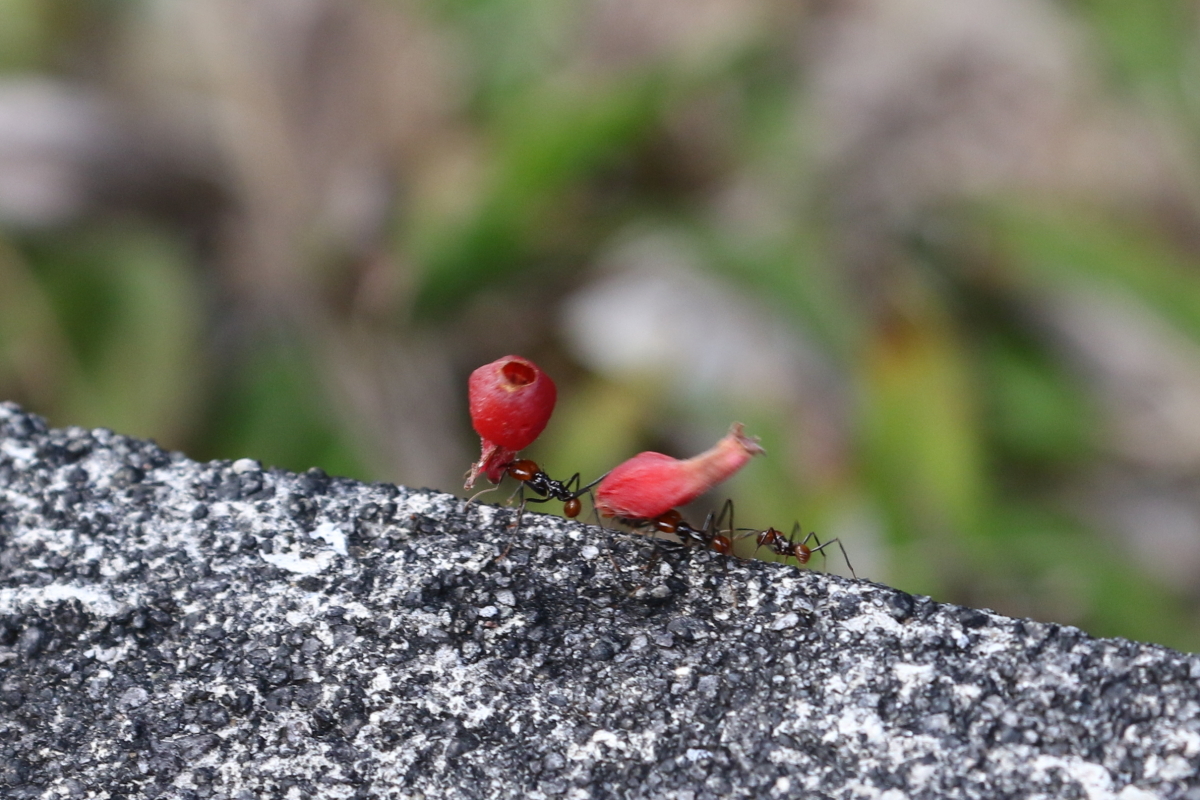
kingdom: Animalia
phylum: Arthropoda
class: Insecta
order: Hymenoptera
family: Formicidae
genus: Atta
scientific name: Atta cephalotes
